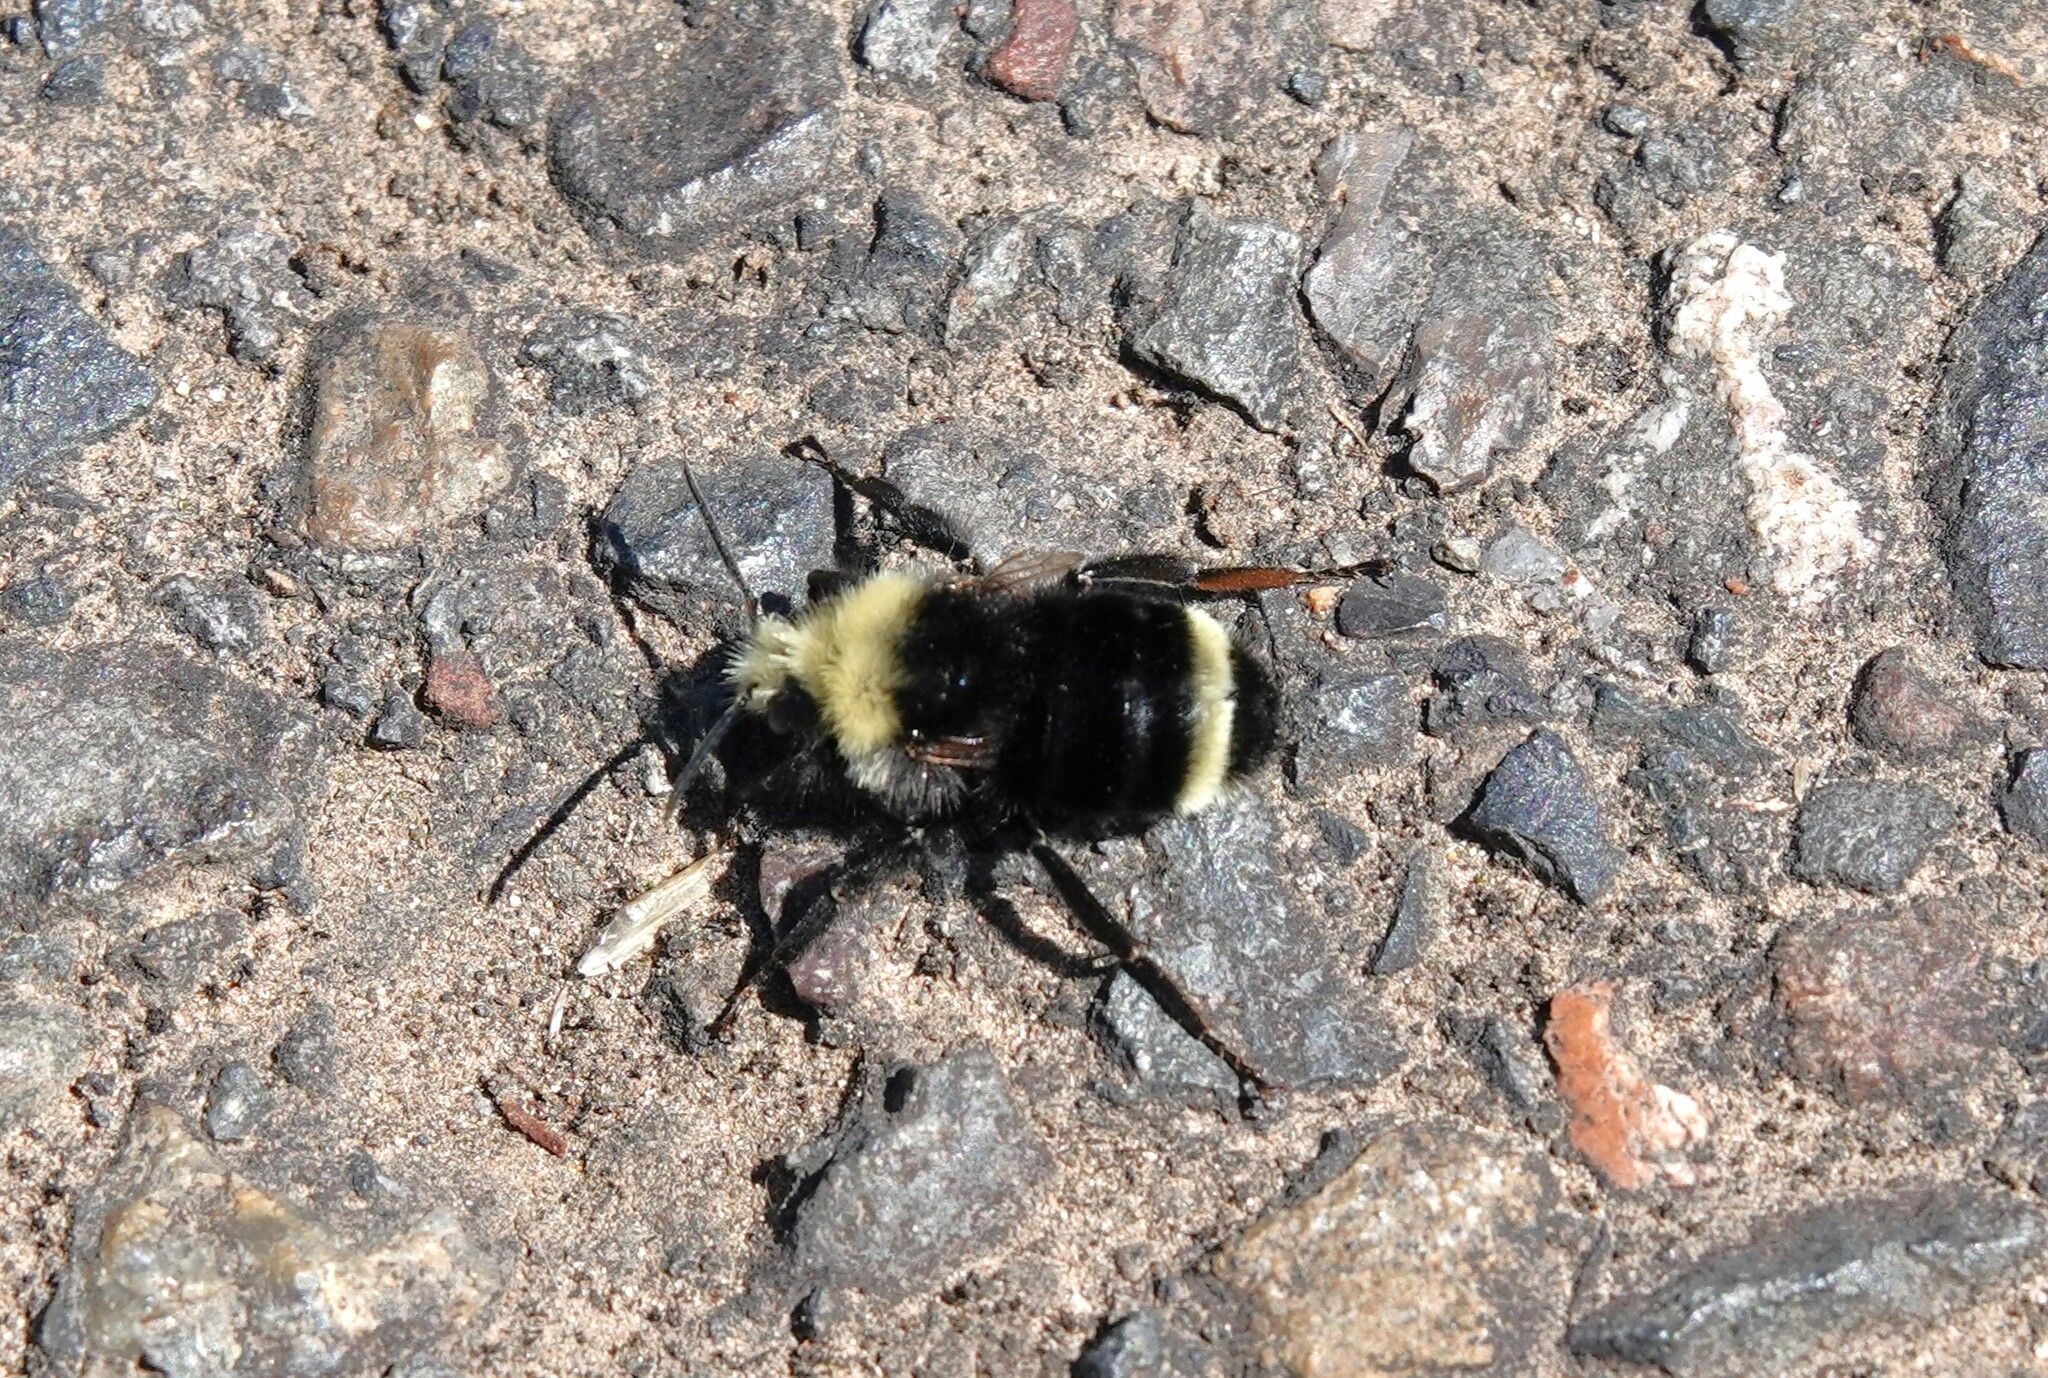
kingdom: Animalia
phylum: Arthropoda
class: Insecta
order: Hymenoptera
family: Apidae
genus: Pyrobombus
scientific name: Pyrobombus
